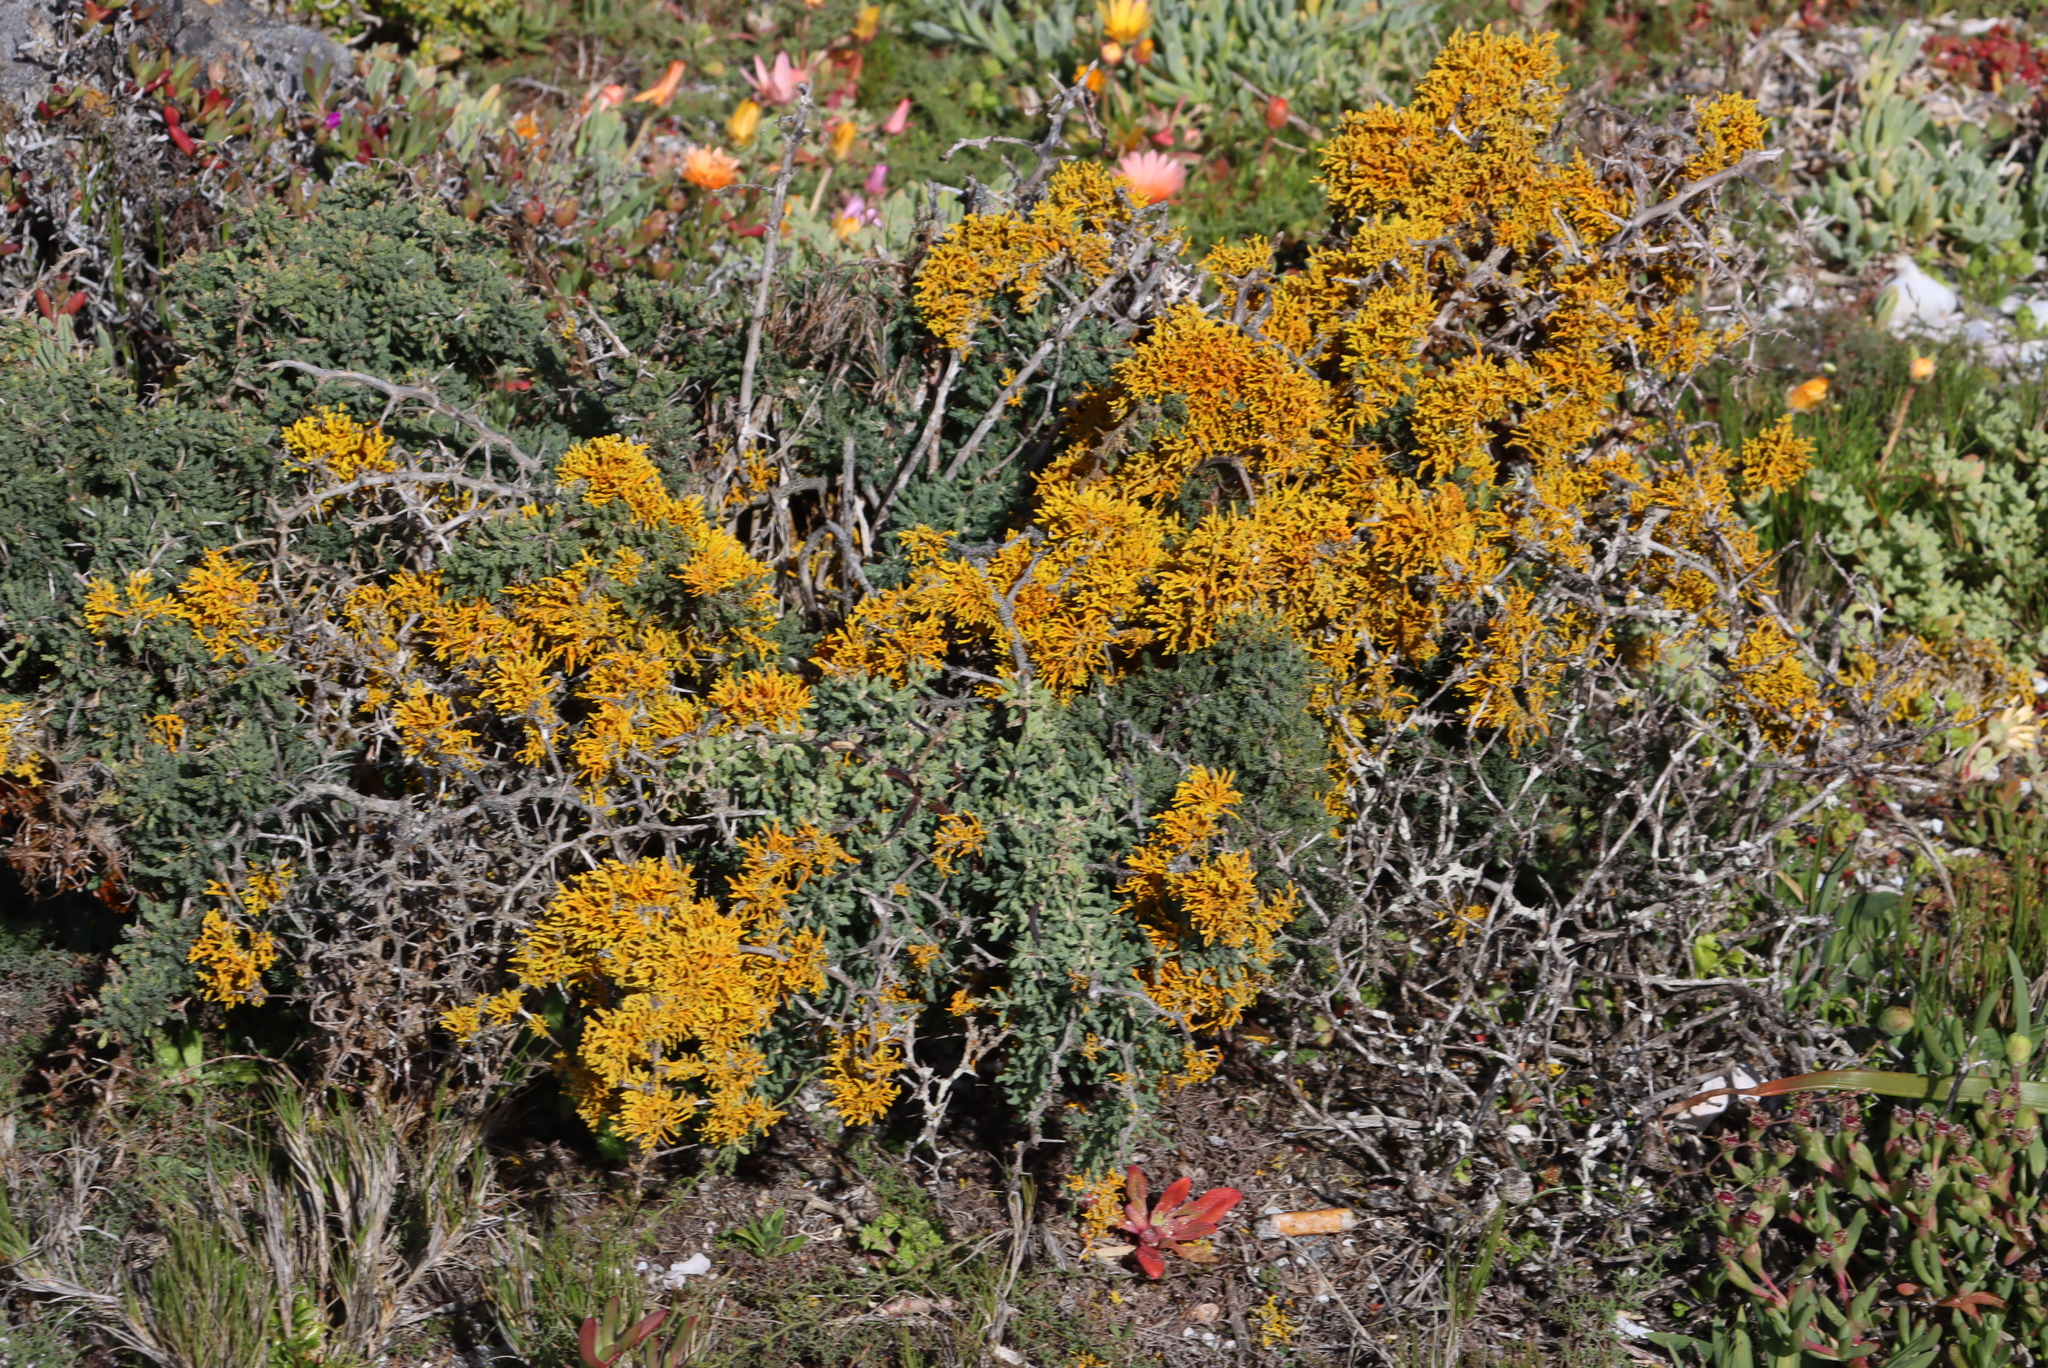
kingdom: Fungi
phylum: Ascomycota
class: Lecanoromycetes
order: Teloschistales
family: Teloschistaceae
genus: Dufourea
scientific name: Dufourea flammea
